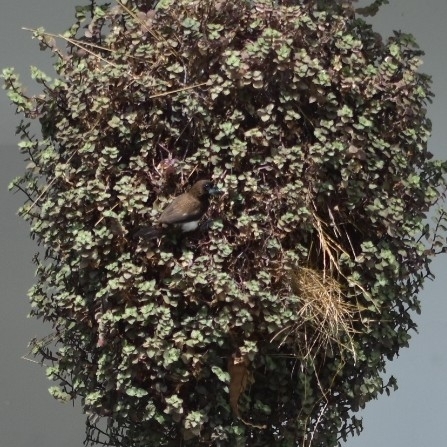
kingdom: Animalia
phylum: Chordata
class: Aves
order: Passeriformes
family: Estrildidae
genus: Lonchura
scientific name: Lonchura striata
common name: White-rumped munia
